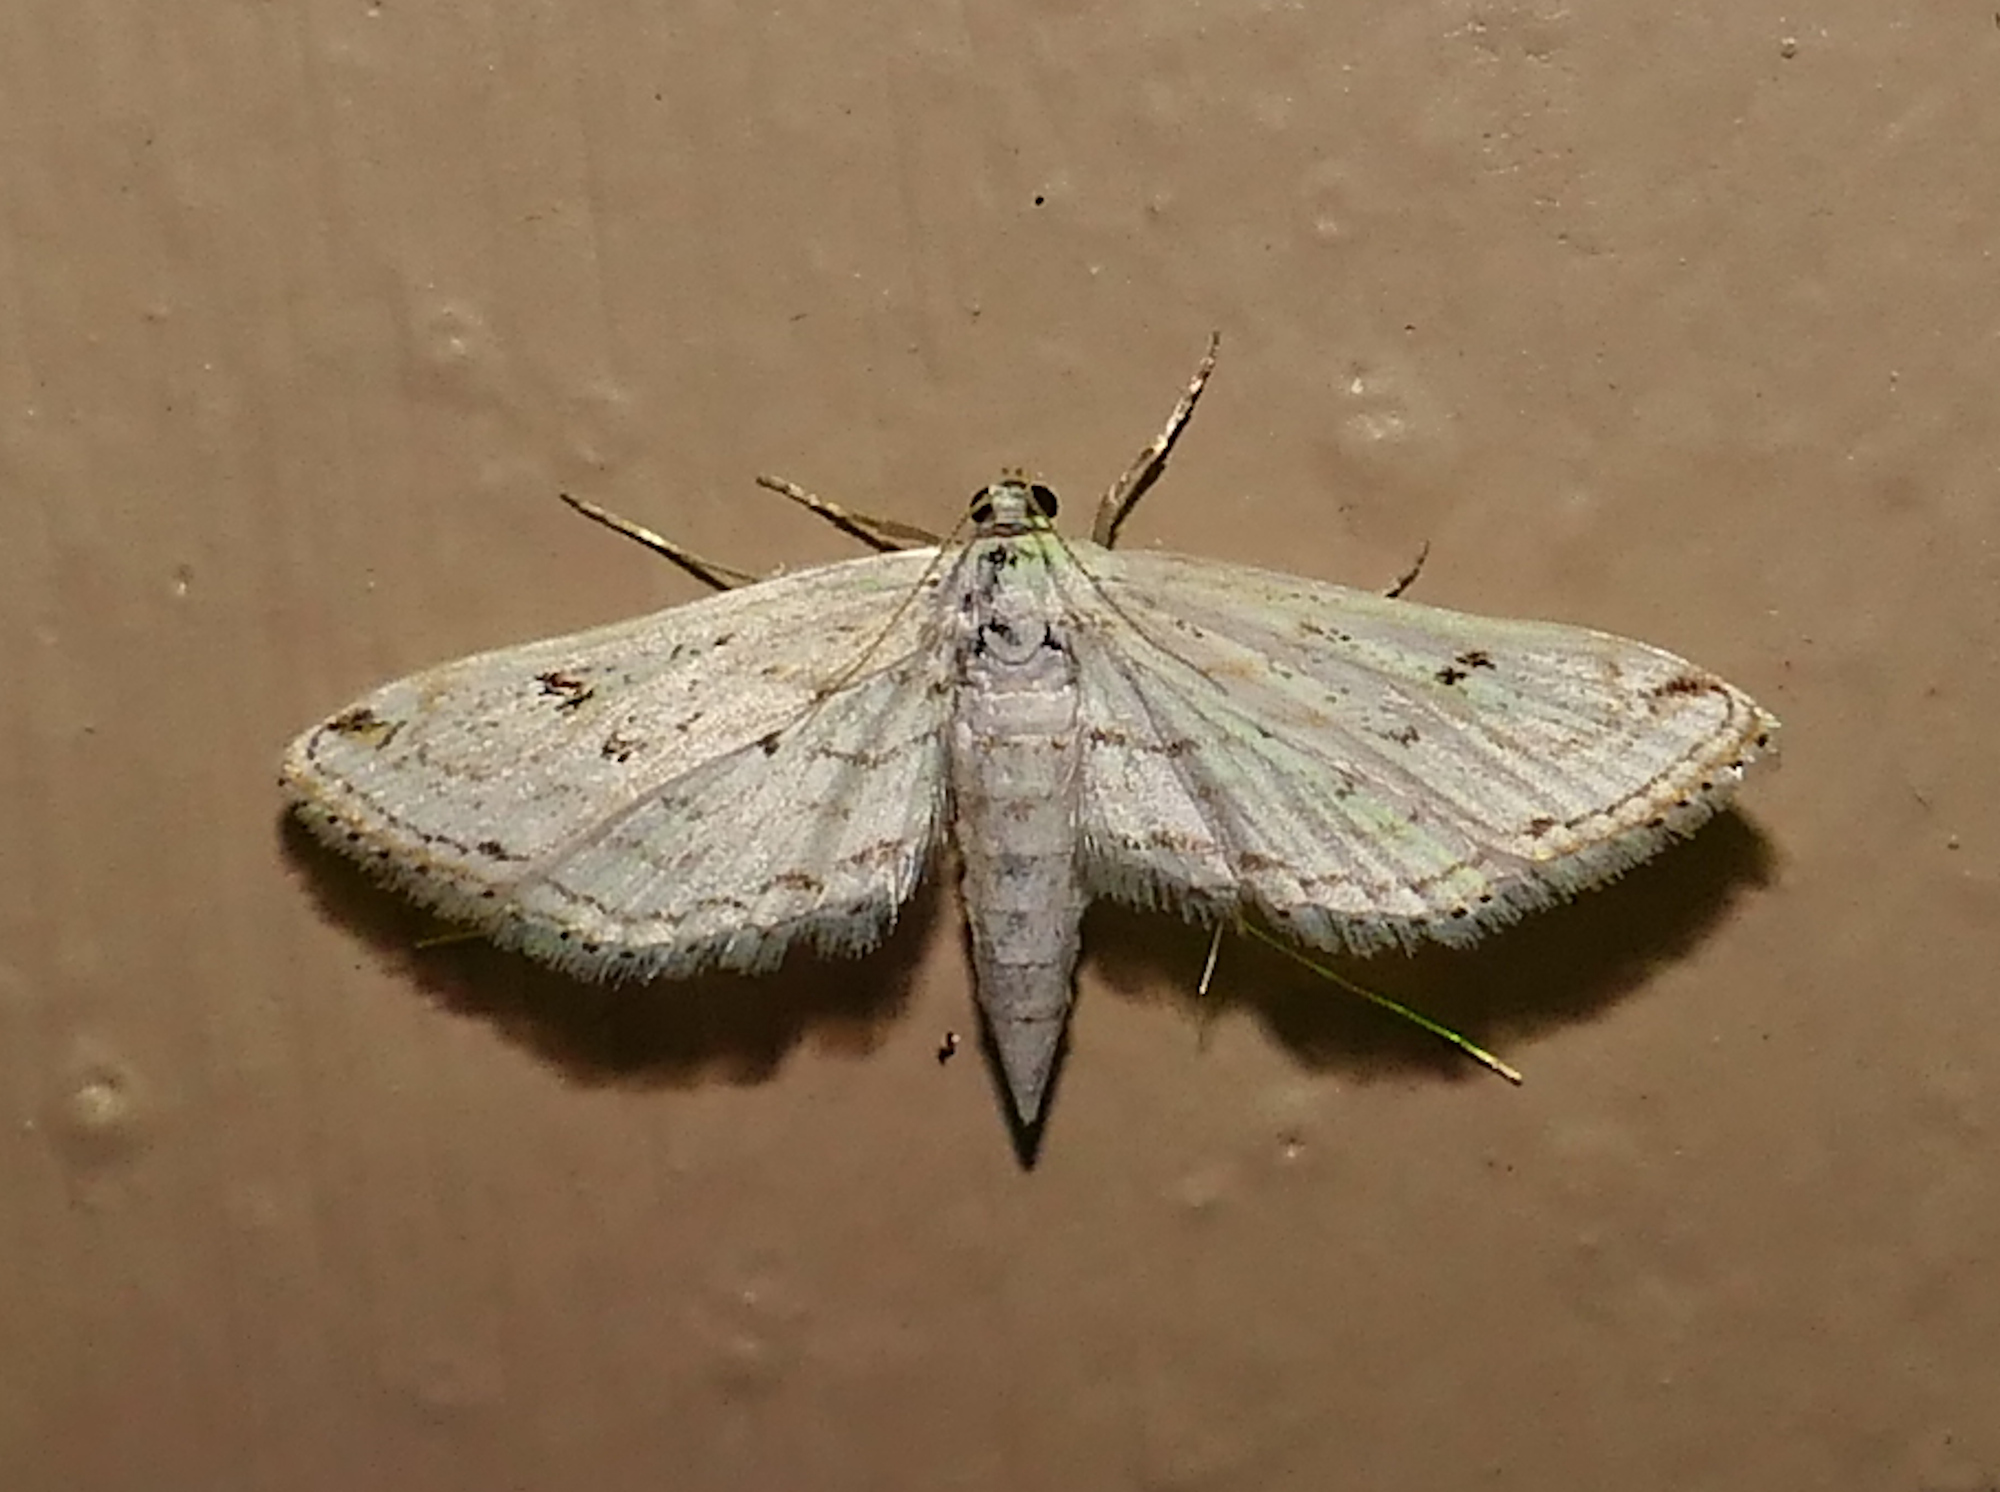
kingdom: Animalia
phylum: Arthropoda
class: Insecta
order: Lepidoptera
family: Crambidae
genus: Parapoynx
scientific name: Parapoynx allionealis
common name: Bladderwort casemaker
